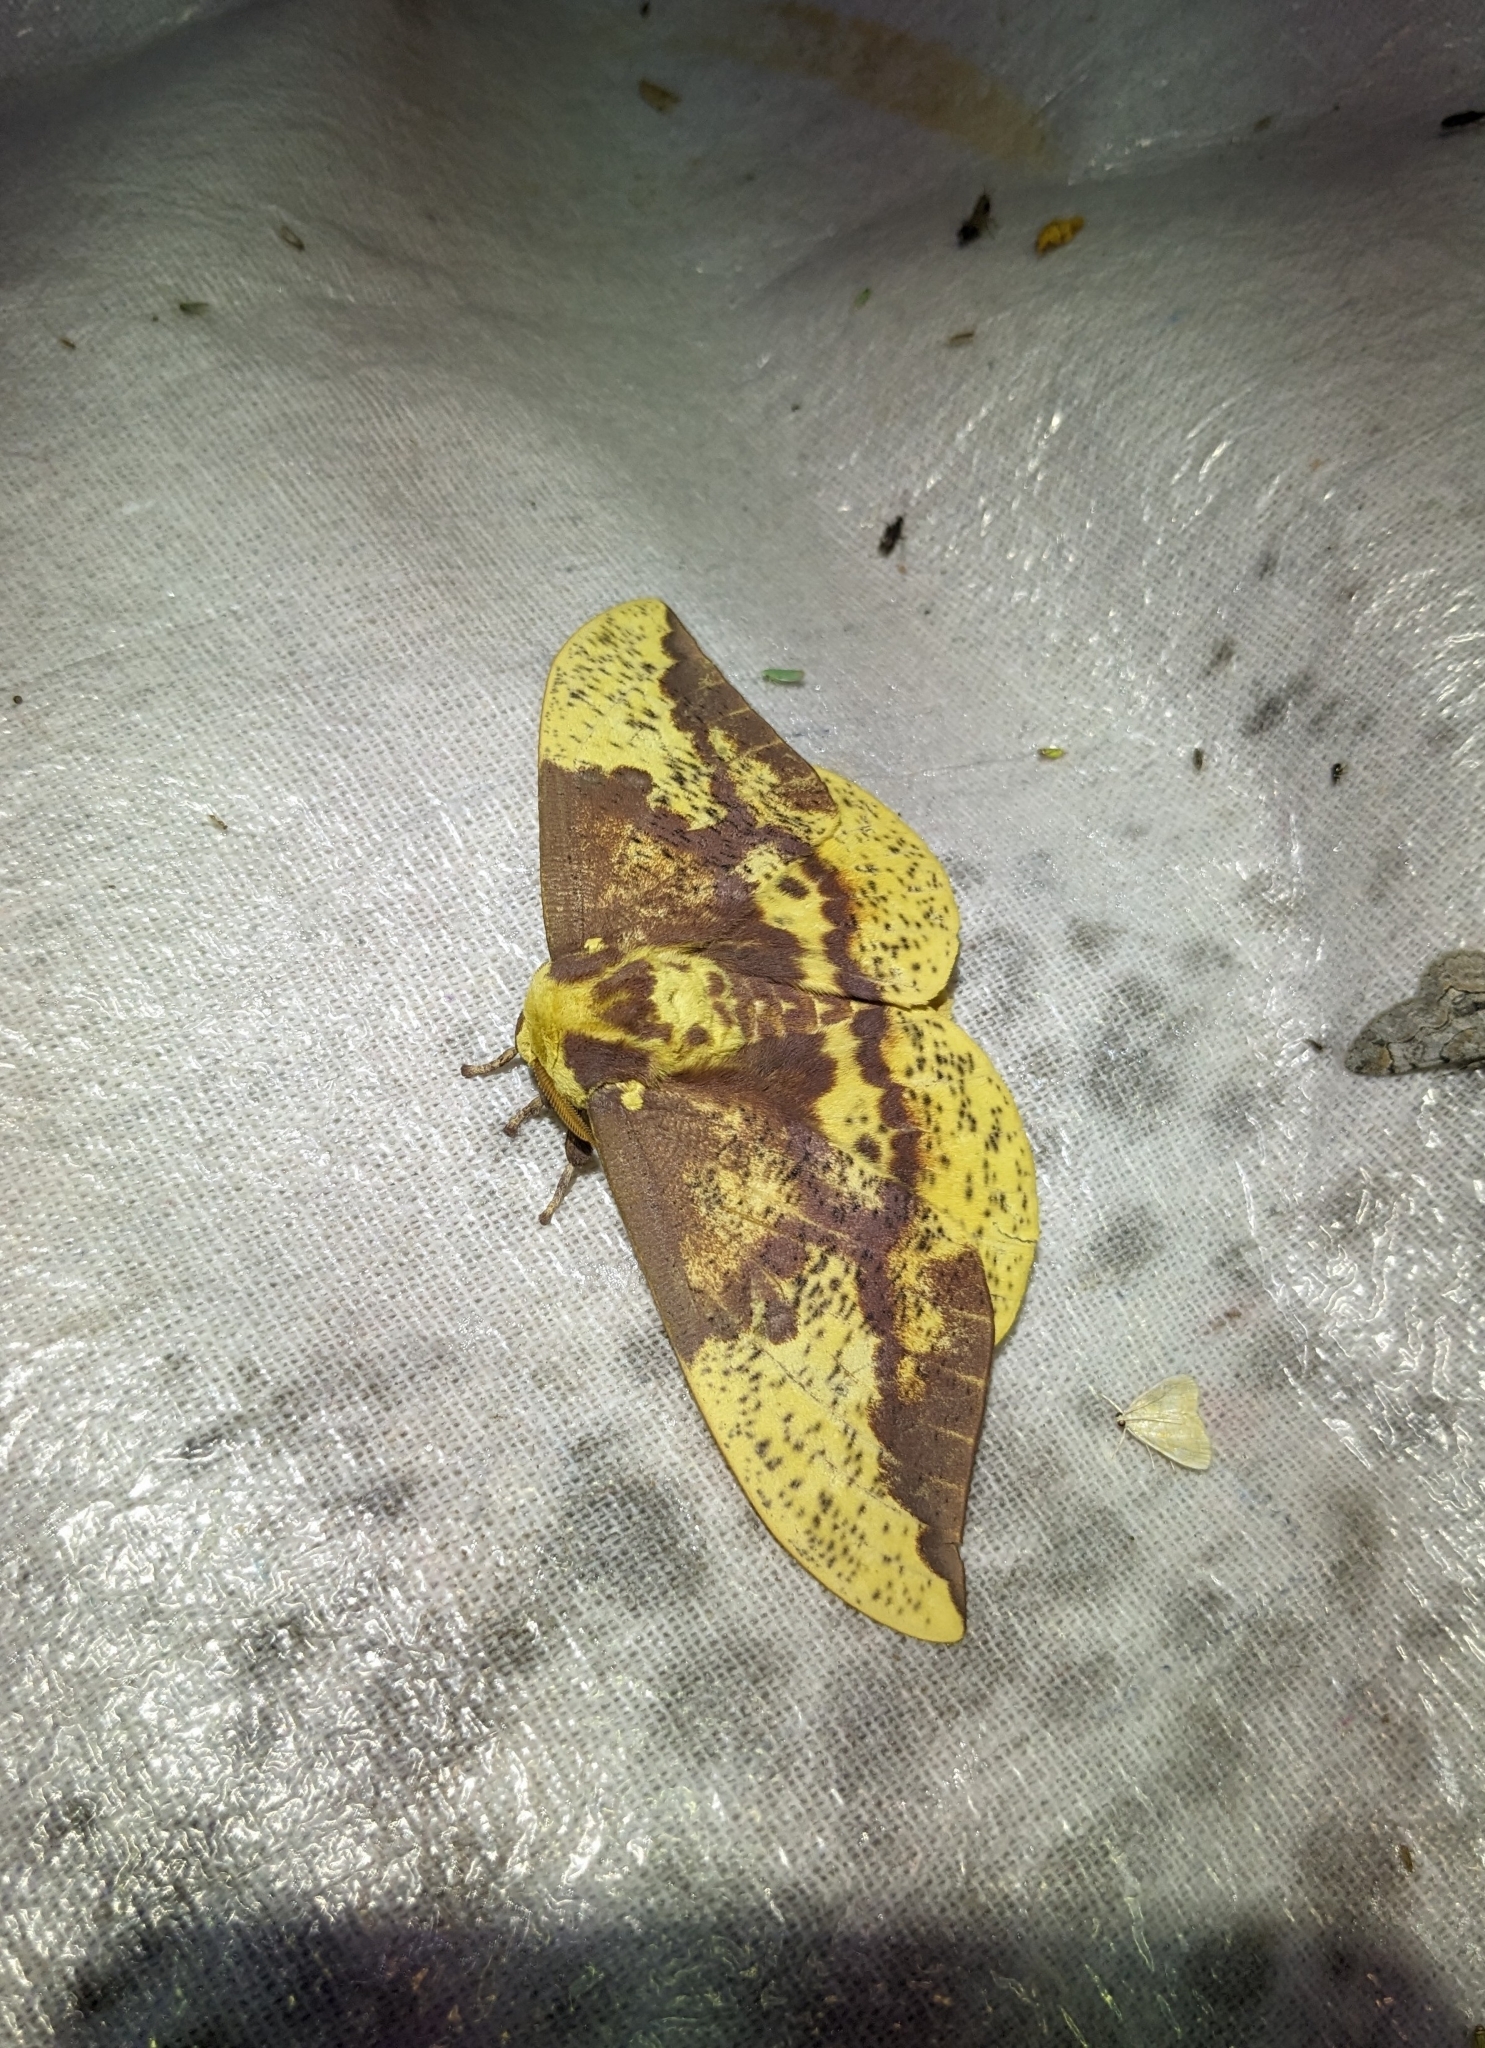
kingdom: Animalia
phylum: Arthropoda
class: Insecta
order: Lepidoptera
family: Saturniidae
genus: Eacles
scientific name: Eacles imperialis
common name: Imperial moth
